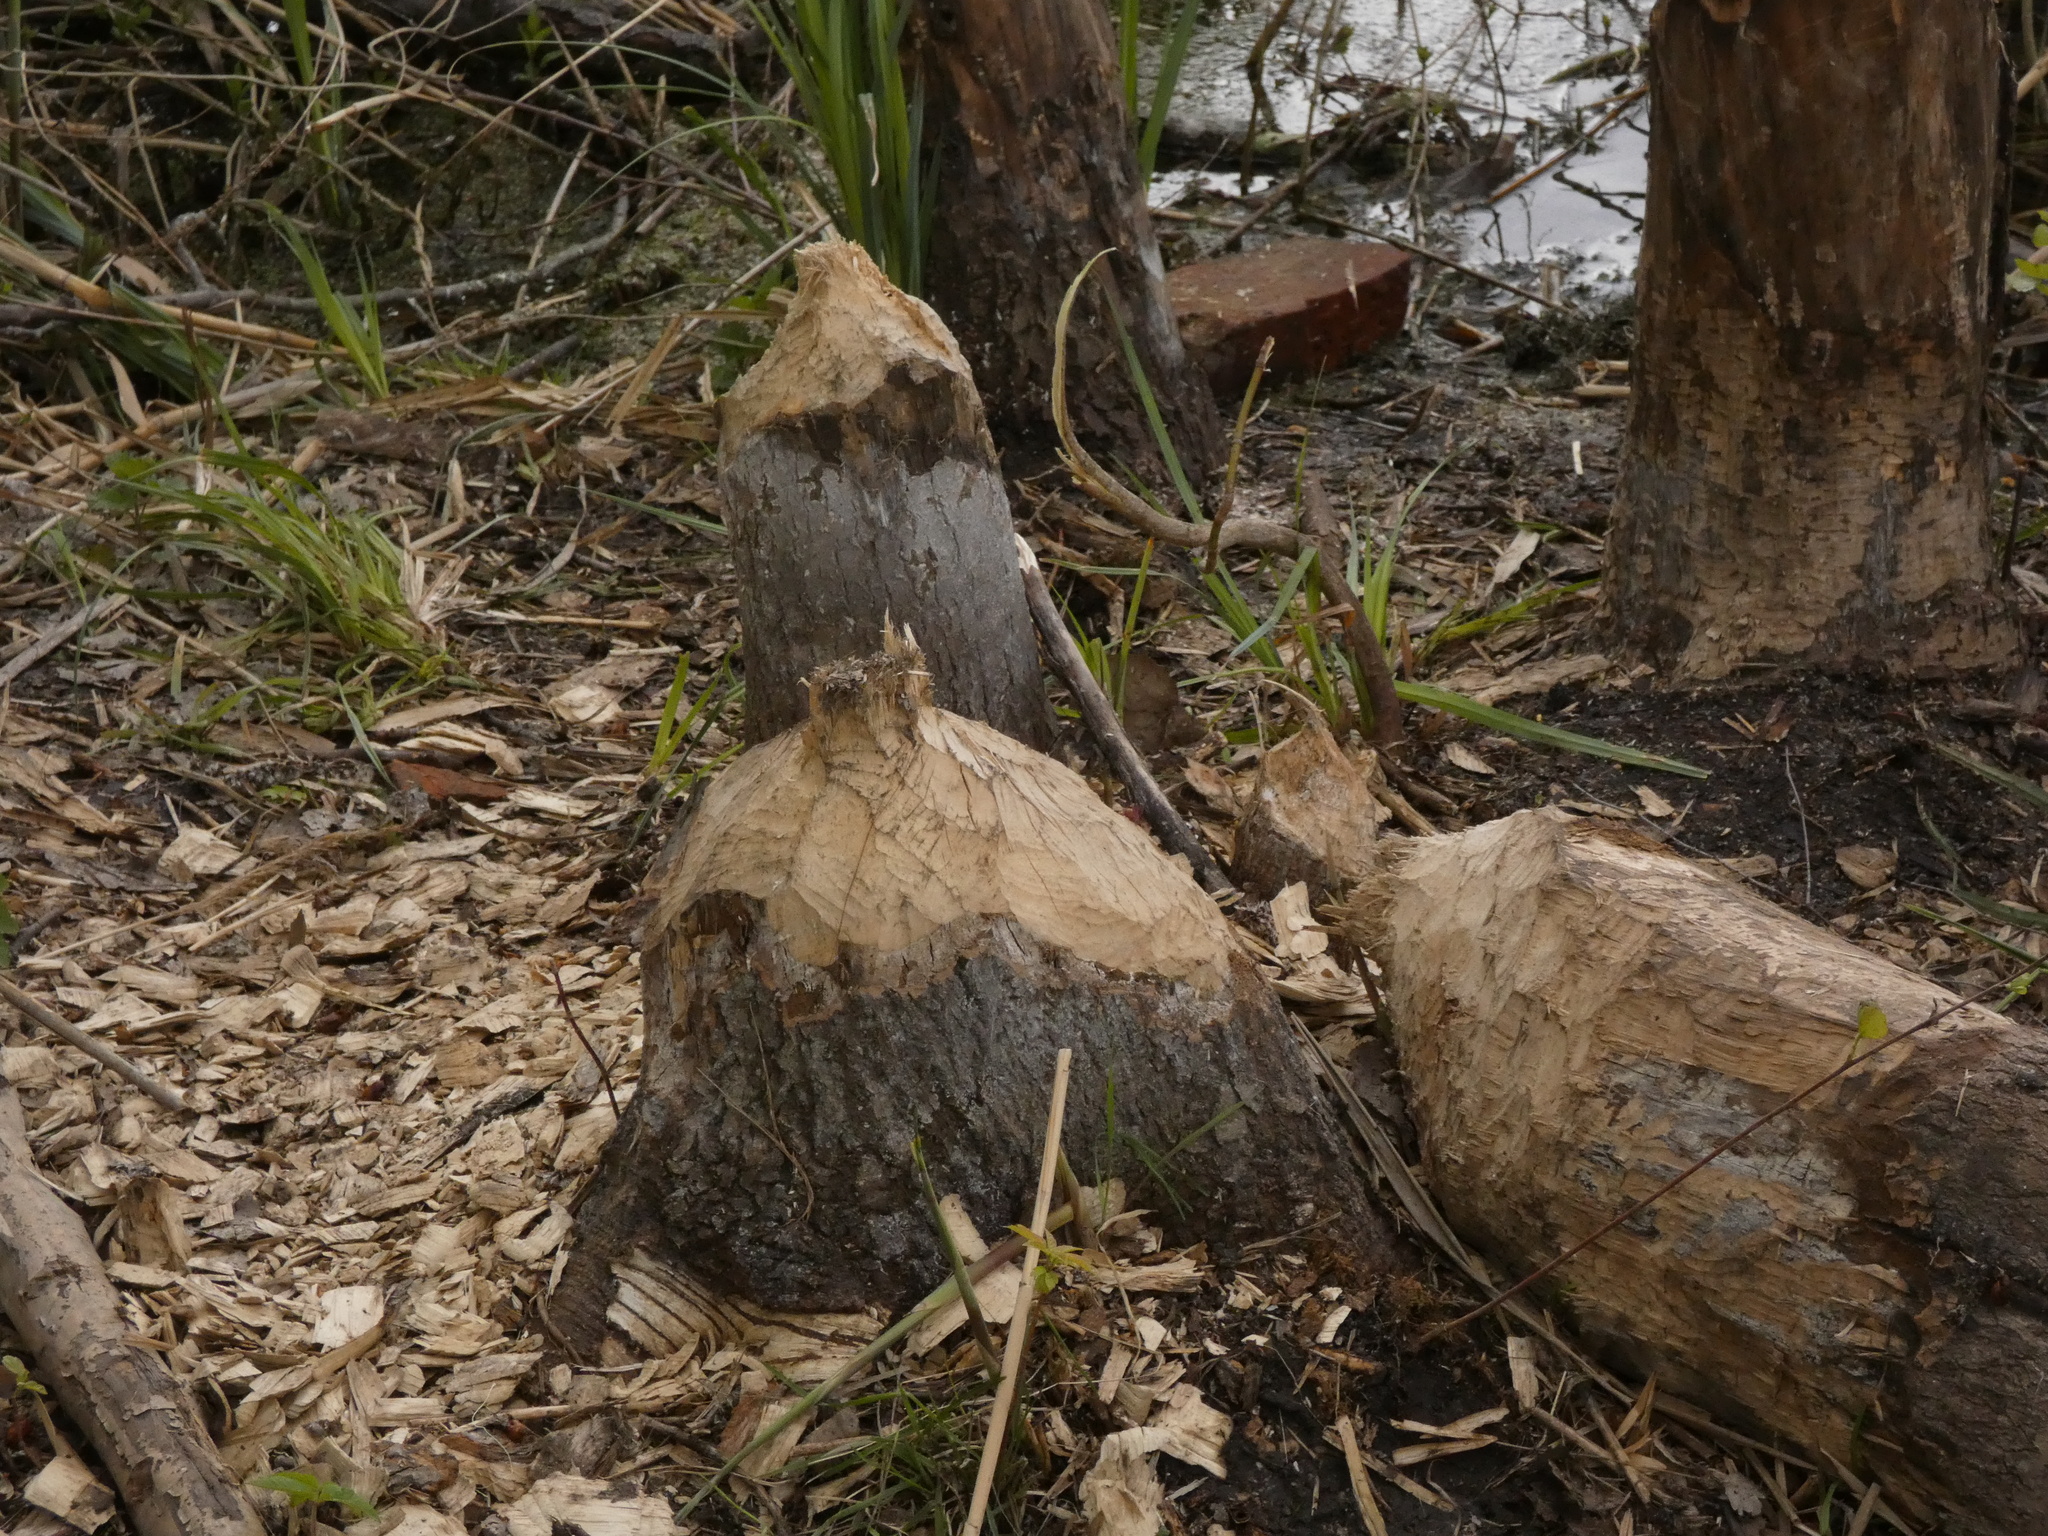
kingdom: Animalia
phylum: Chordata
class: Mammalia
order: Rodentia
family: Castoridae
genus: Castor
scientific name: Castor fiber
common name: Eurasian beaver
